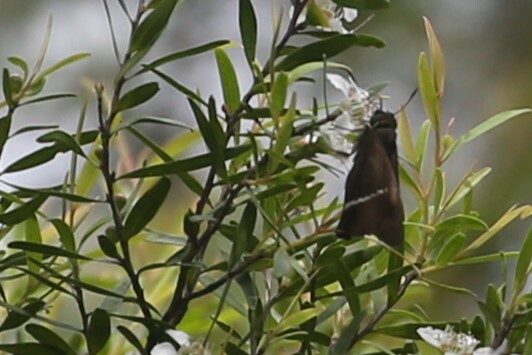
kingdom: Animalia
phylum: Arthropoda
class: Insecta
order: Lepidoptera
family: Hesperiidae
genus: Hasora
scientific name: Hasora khoda
